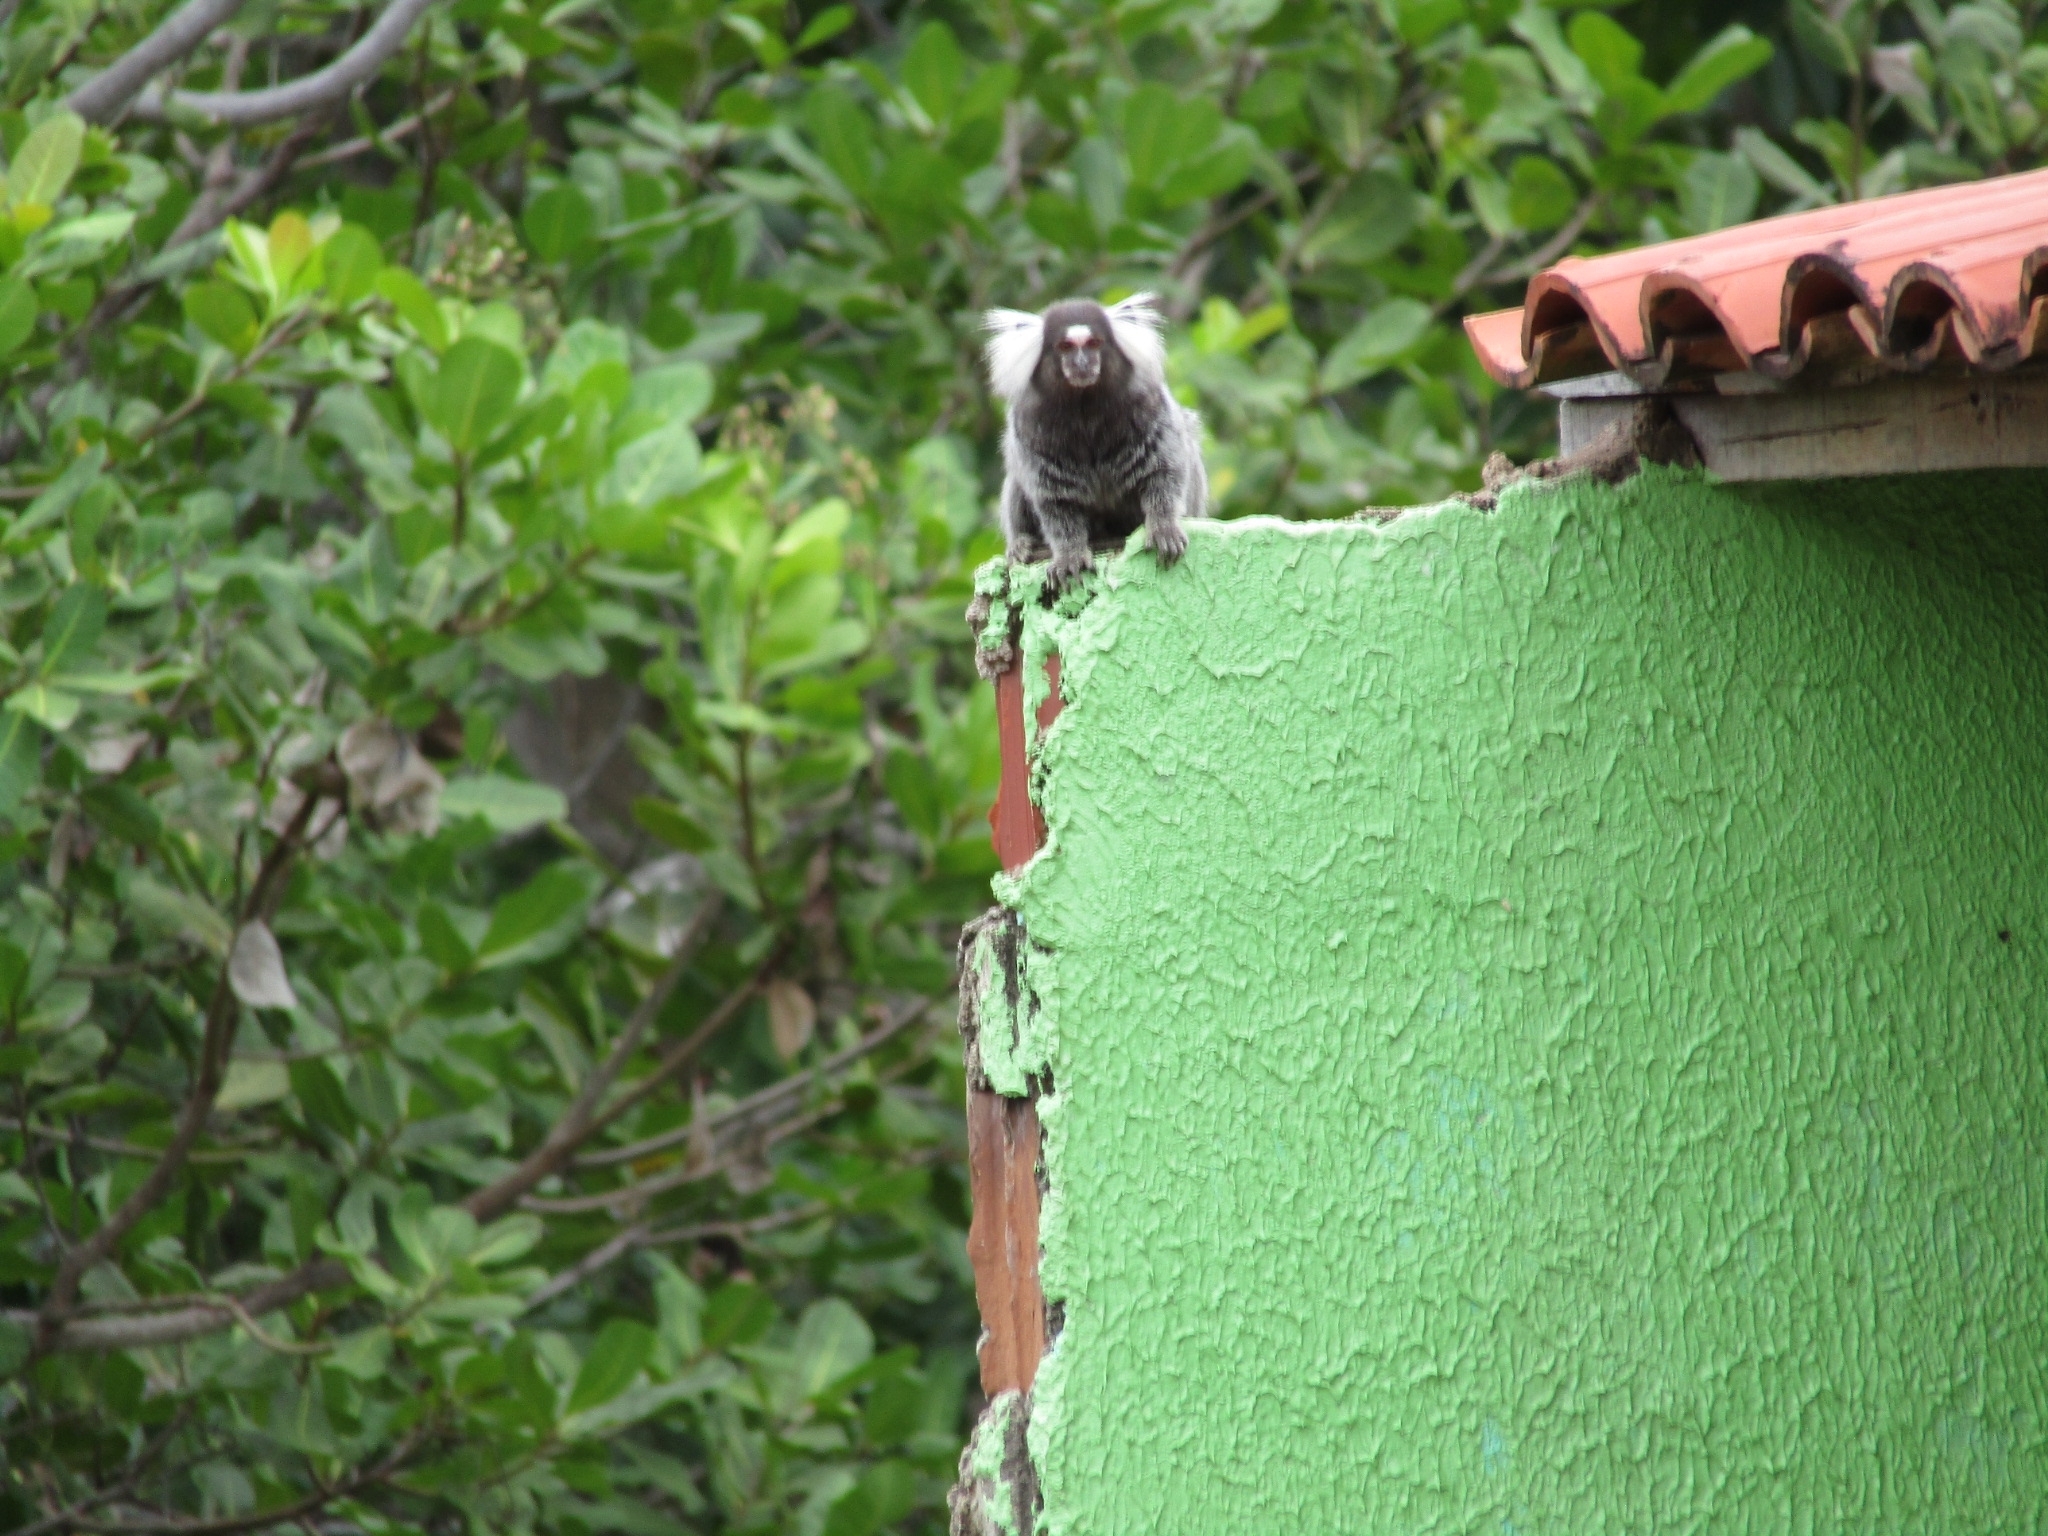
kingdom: Animalia
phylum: Chordata
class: Mammalia
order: Primates
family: Callitrichidae
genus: Callithrix
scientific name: Callithrix jacchus
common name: Common marmoset
